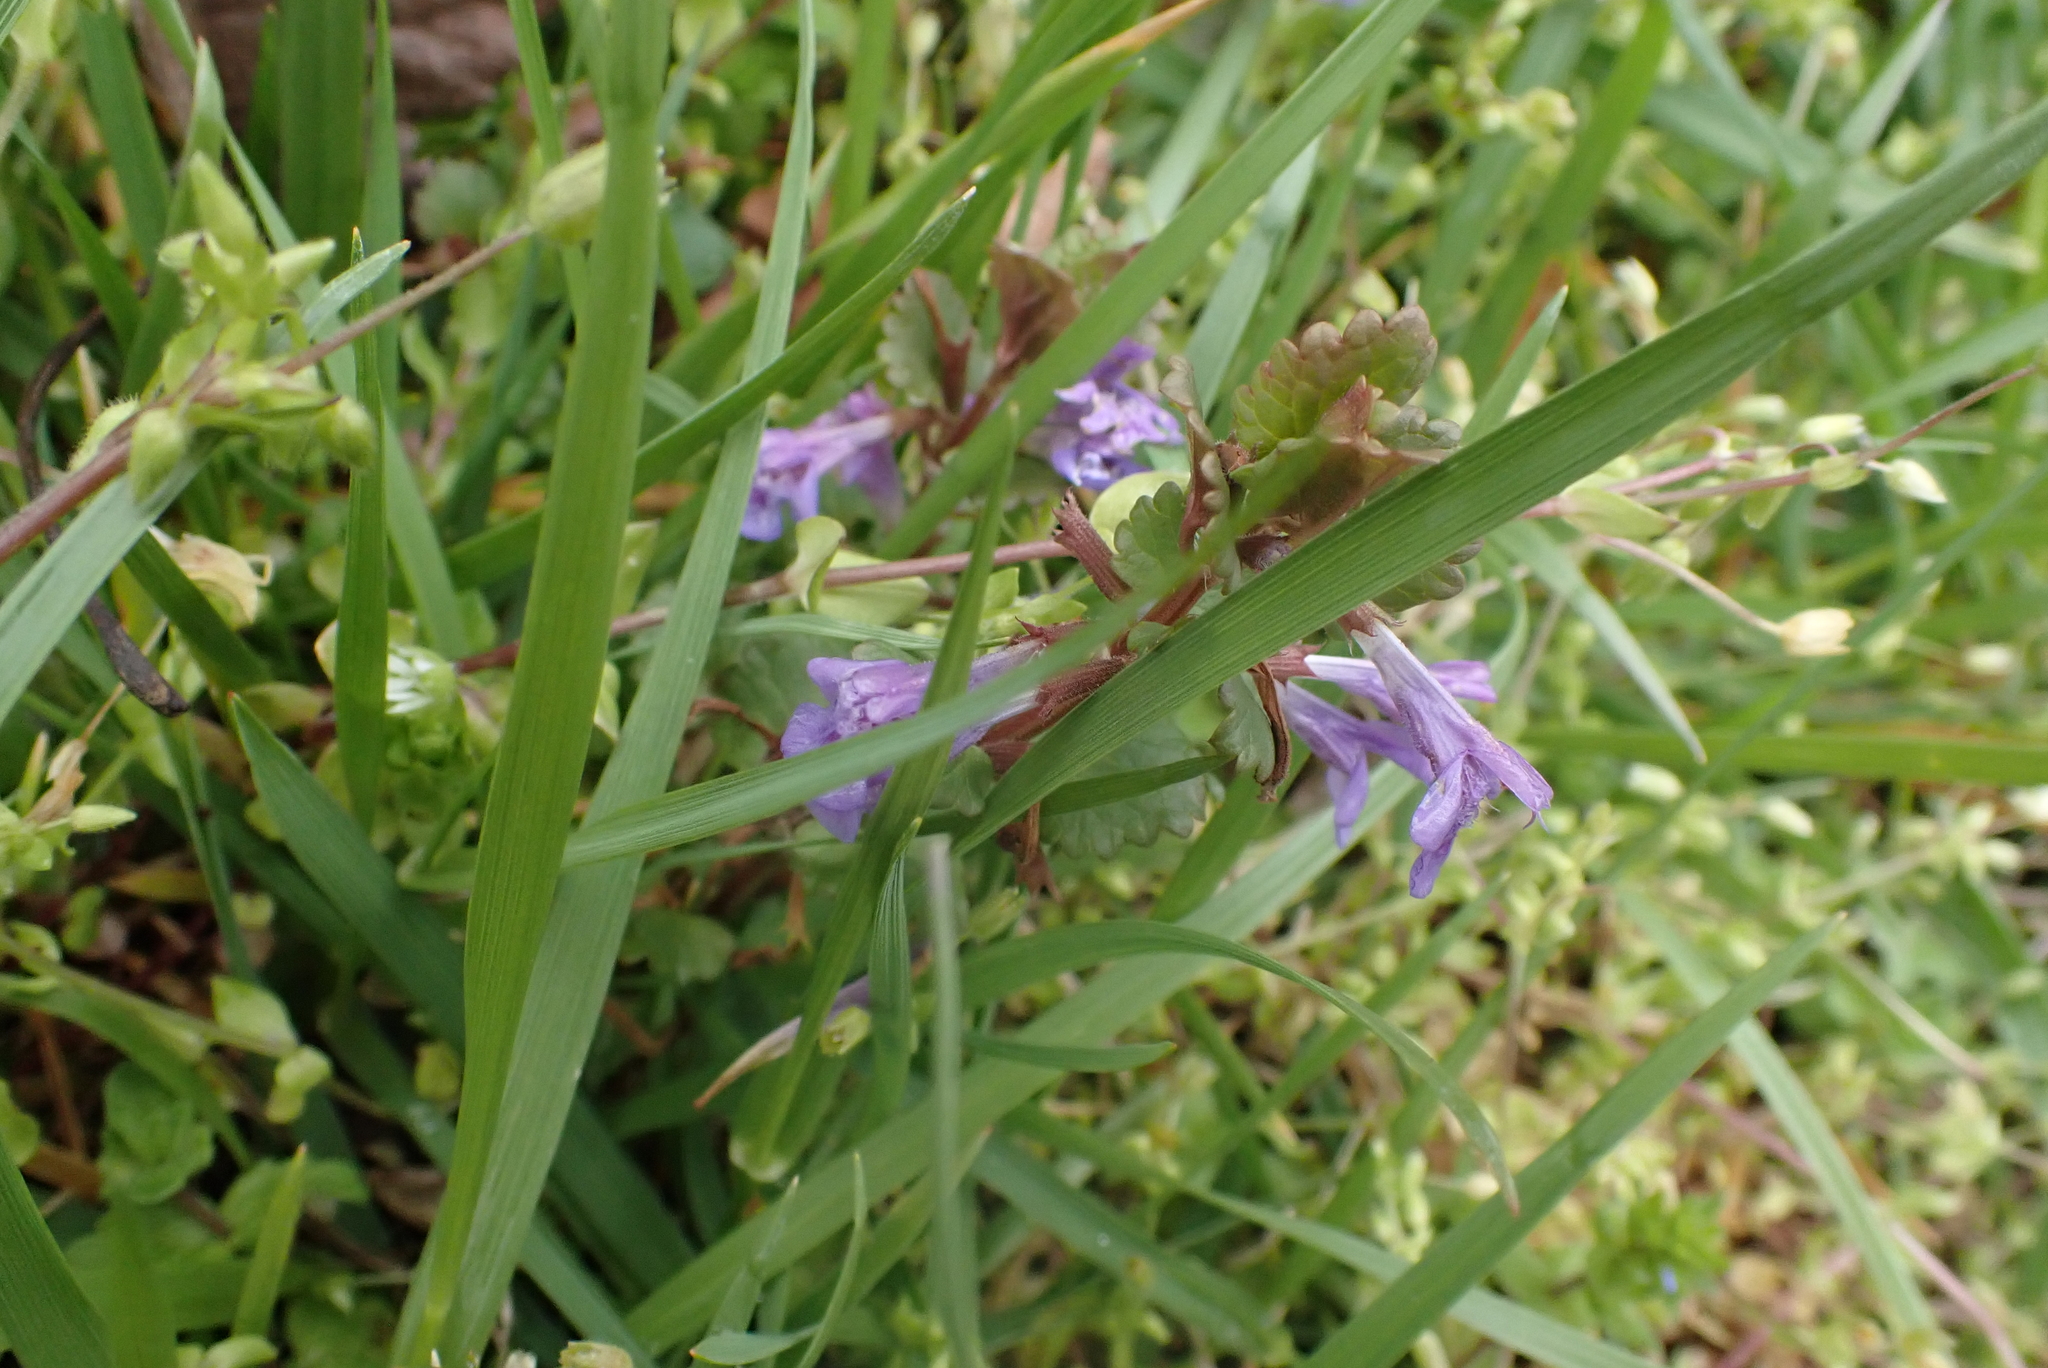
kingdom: Plantae
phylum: Tracheophyta
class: Magnoliopsida
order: Lamiales
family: Lamiaceae
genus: Glechoma
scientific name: Glechoma hederacea
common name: Ground ivy
